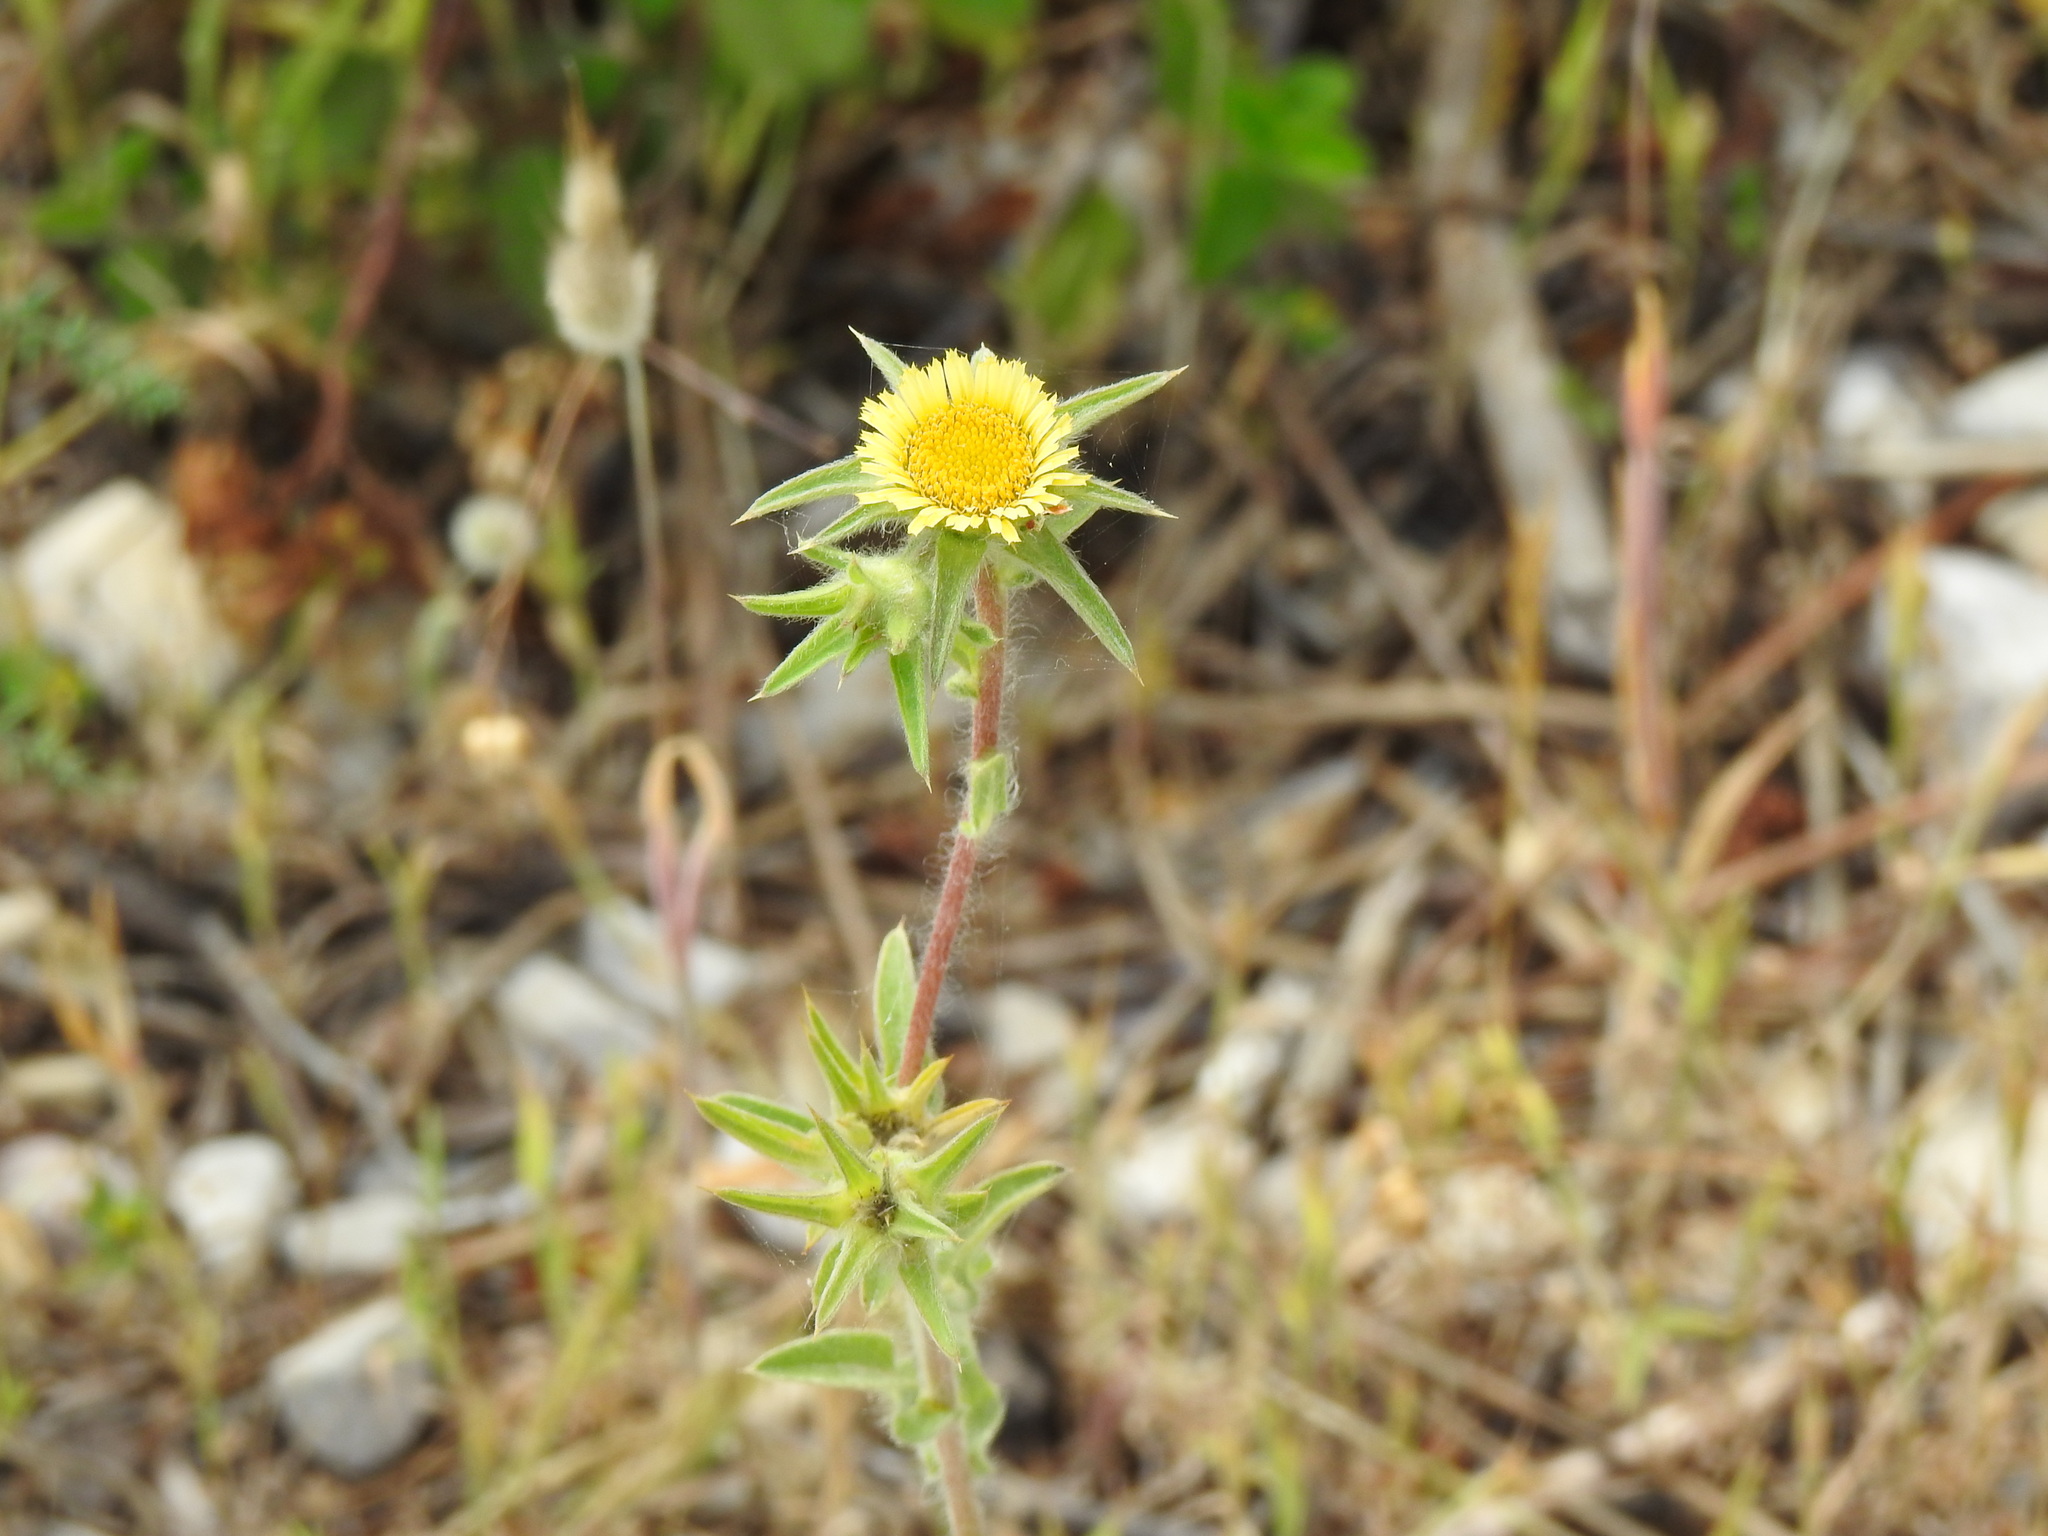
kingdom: Plantae
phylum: Tracheophyta
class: Magnoliopsida
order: Asterales
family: Asteraceae
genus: Pallenis
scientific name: Pallenis spinosa
